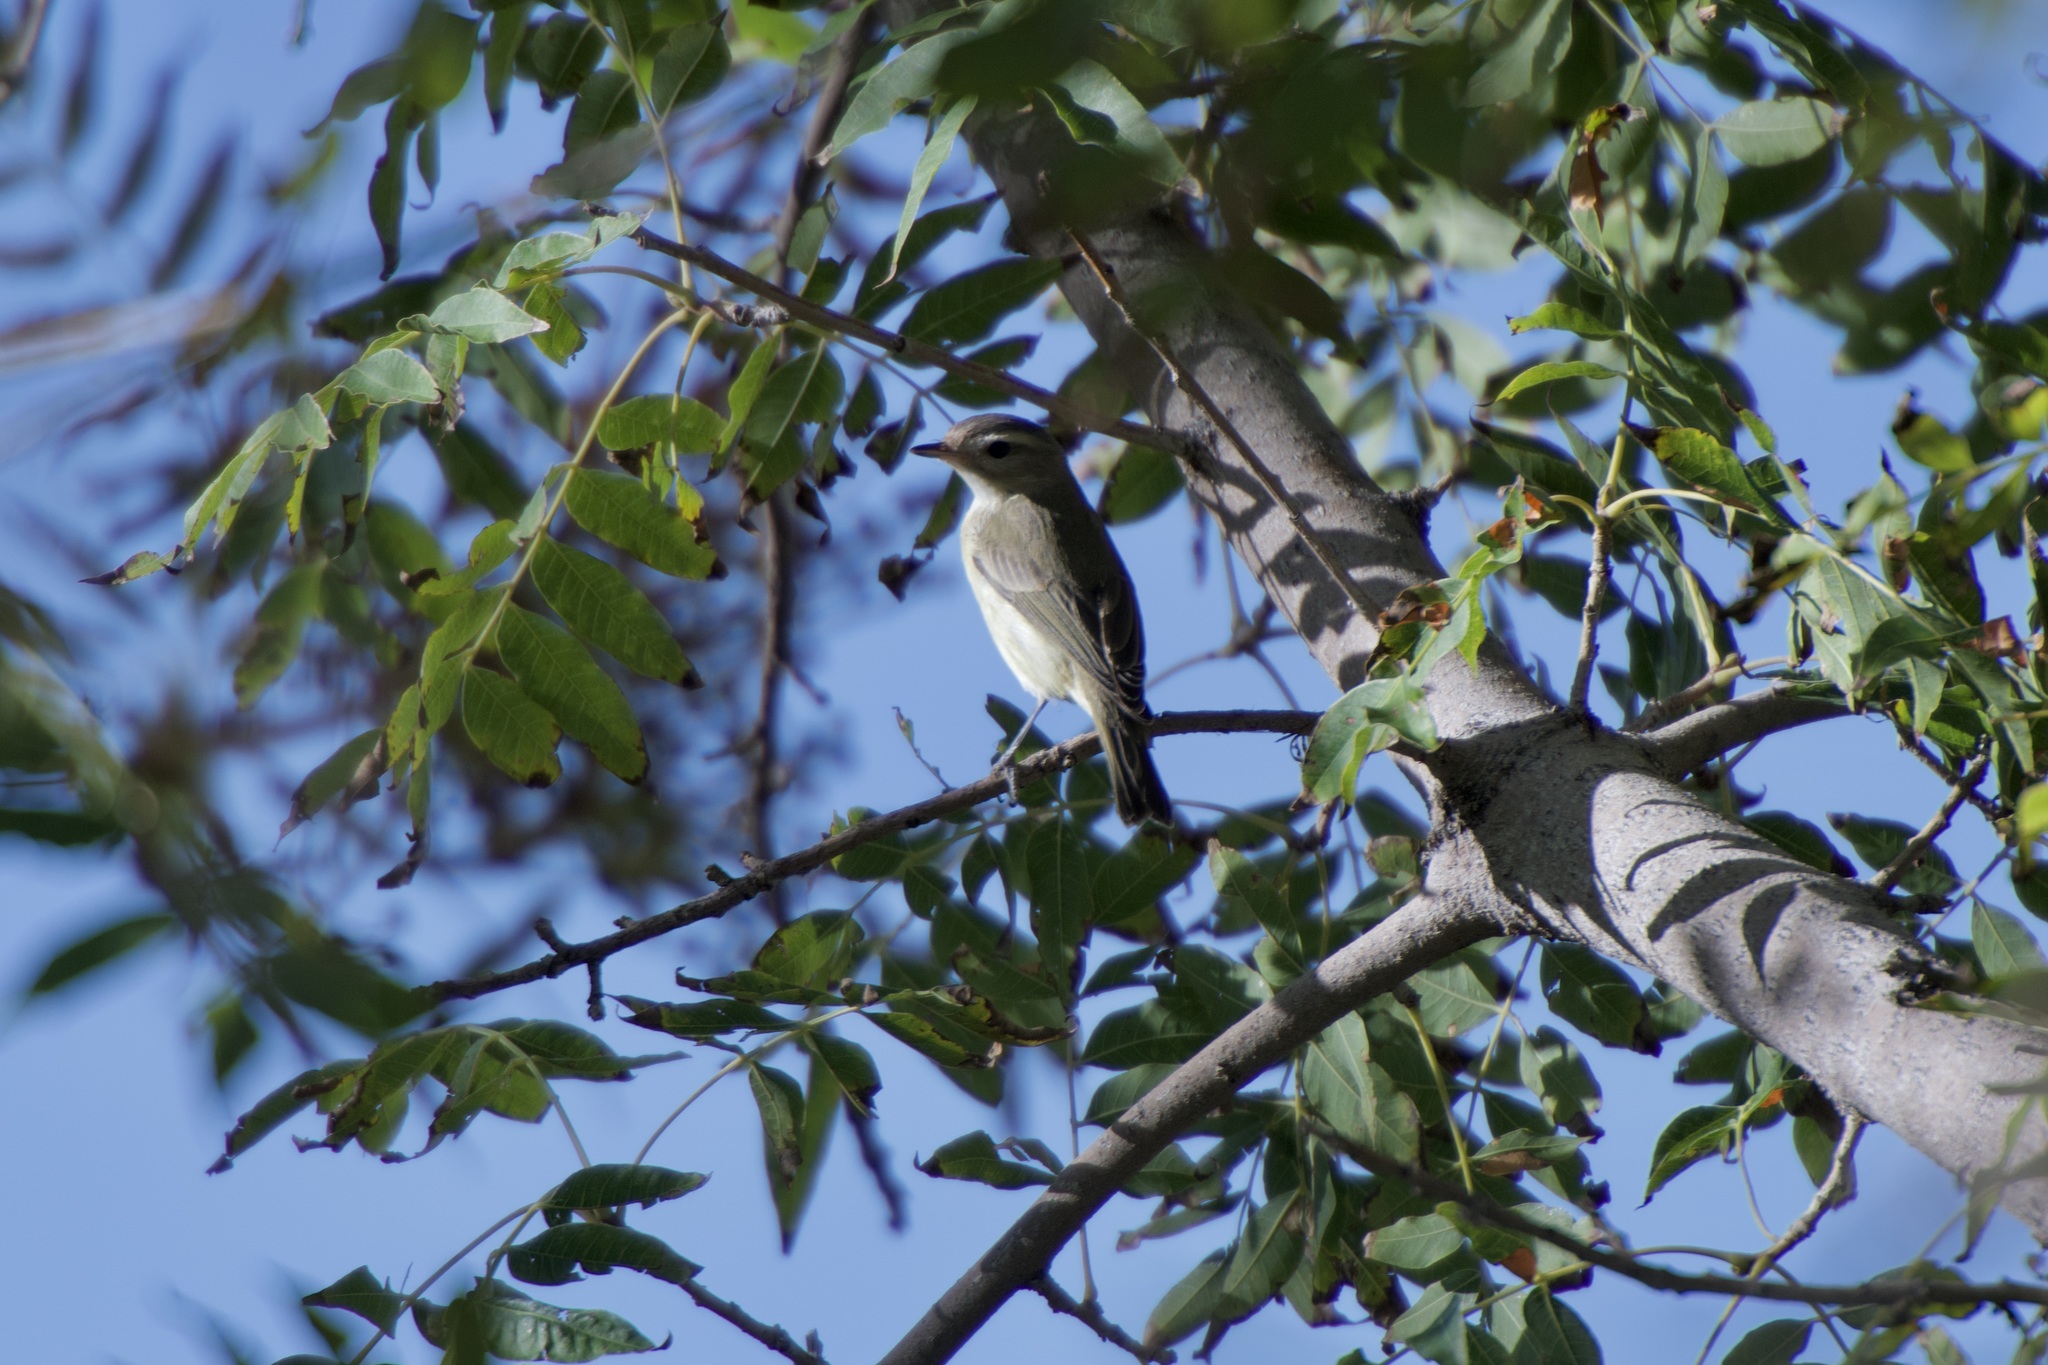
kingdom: Animalia
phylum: Chordata
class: Aves
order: Passeriformes
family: Vireonidae
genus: Vireo
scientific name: Vireo gilvus
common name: Warbling vireo
